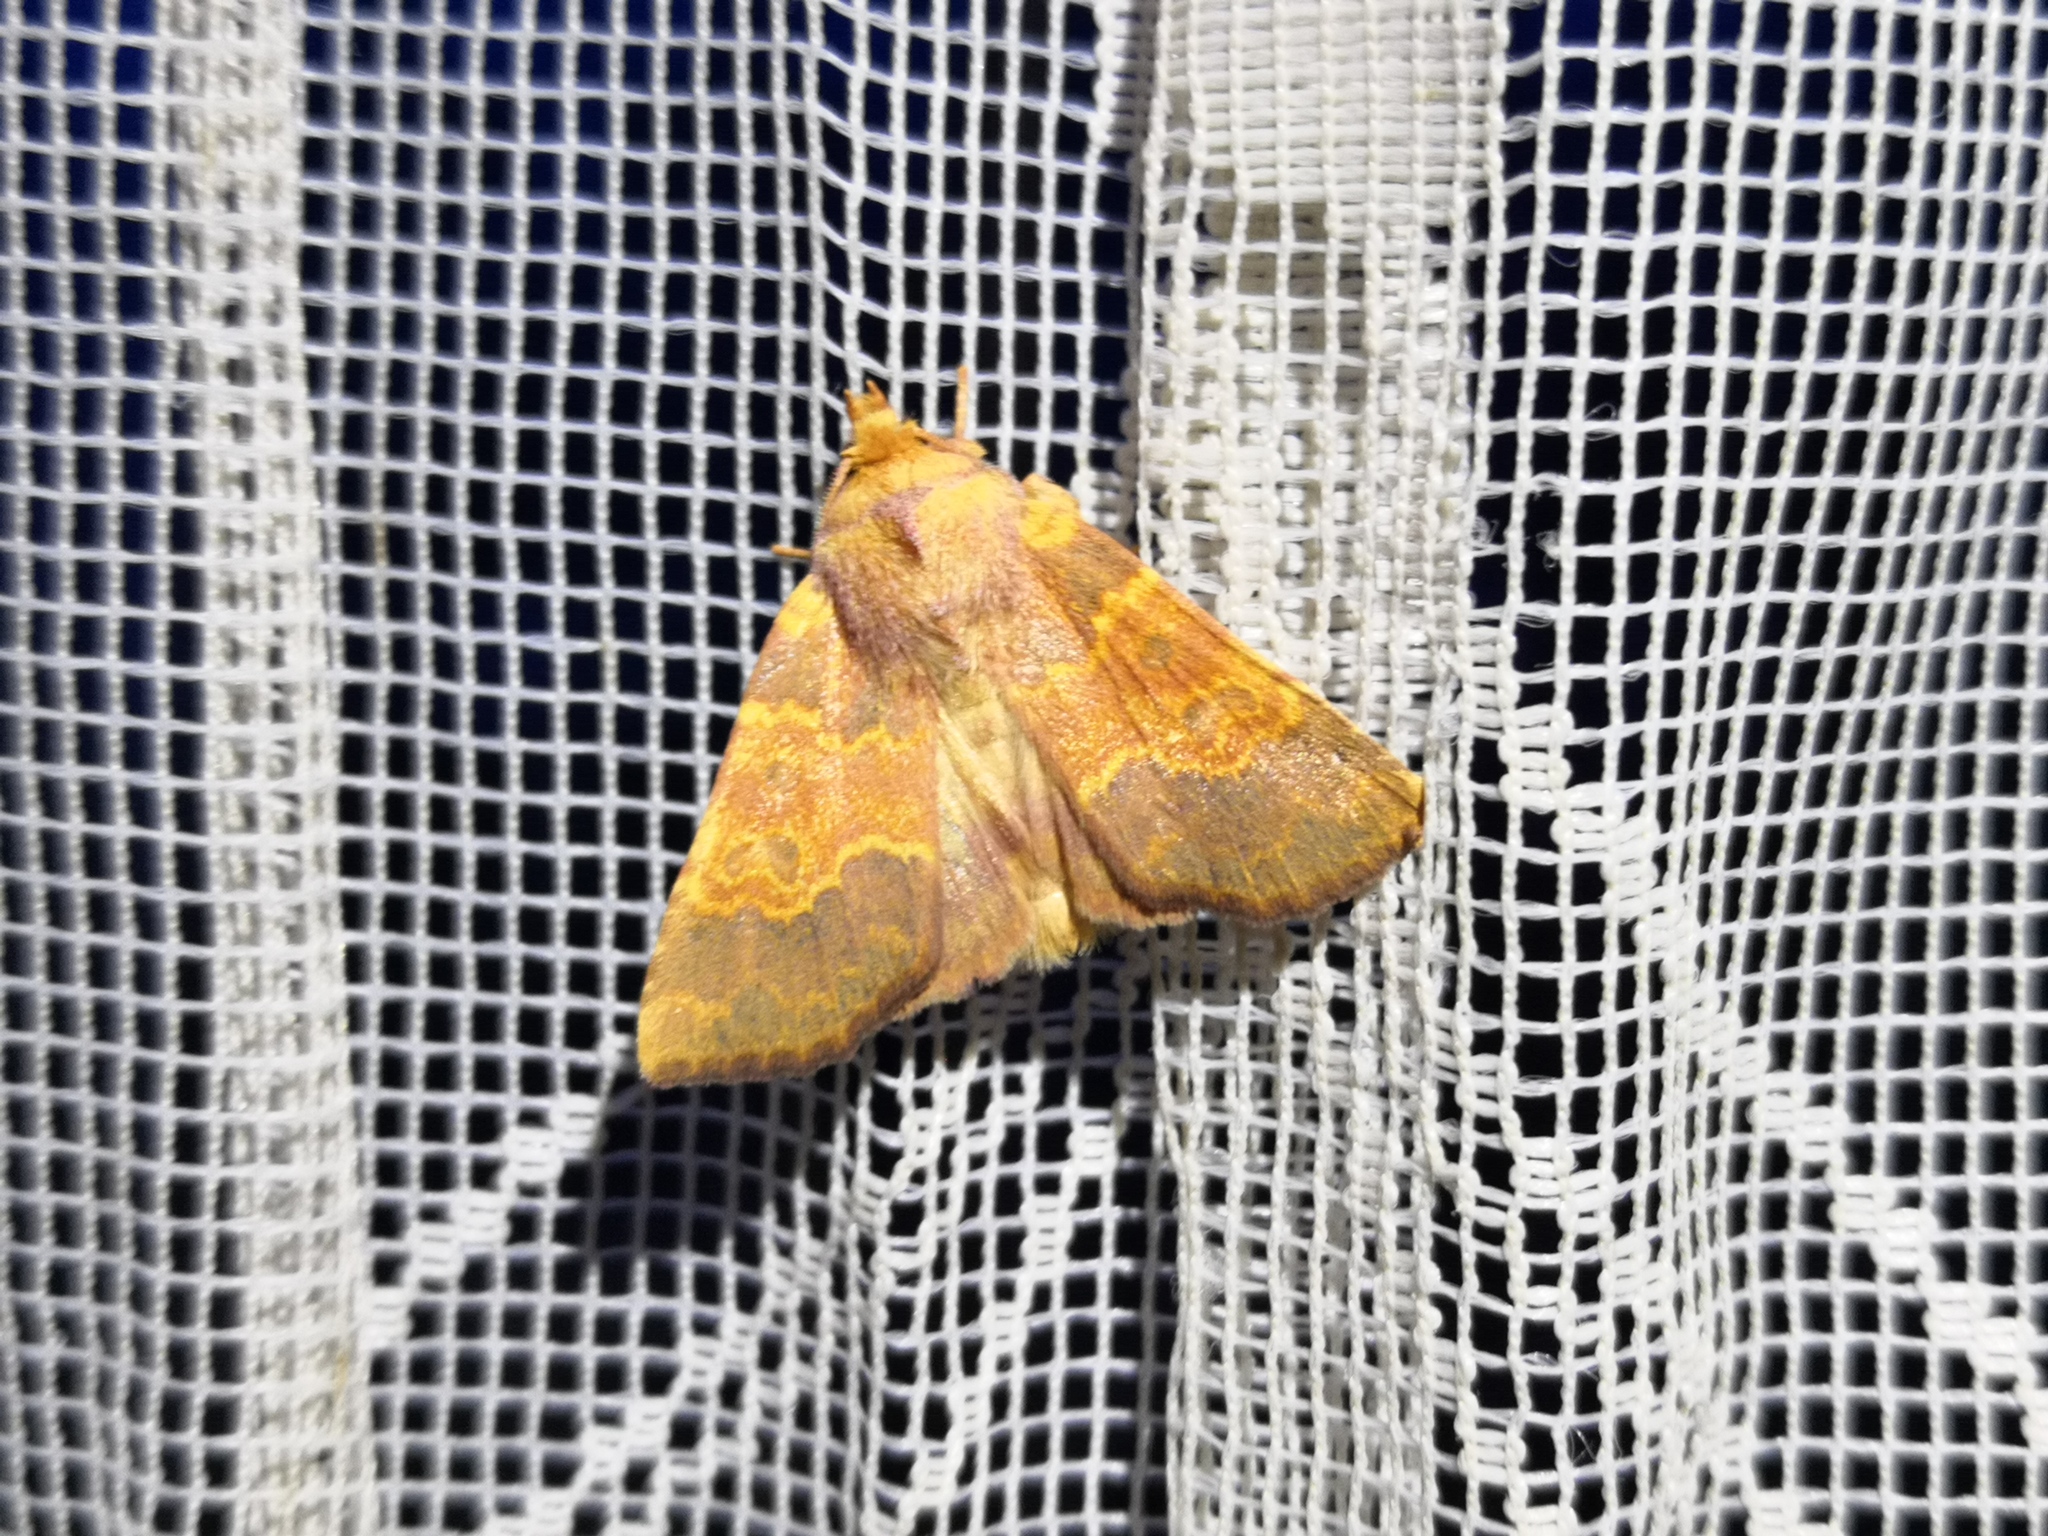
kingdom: Animalia
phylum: Arthropoda
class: Insecta
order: Lepidoptera
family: Noctuidae
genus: Tiliacea
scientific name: Tiliacea aurago
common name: Barred sallow
